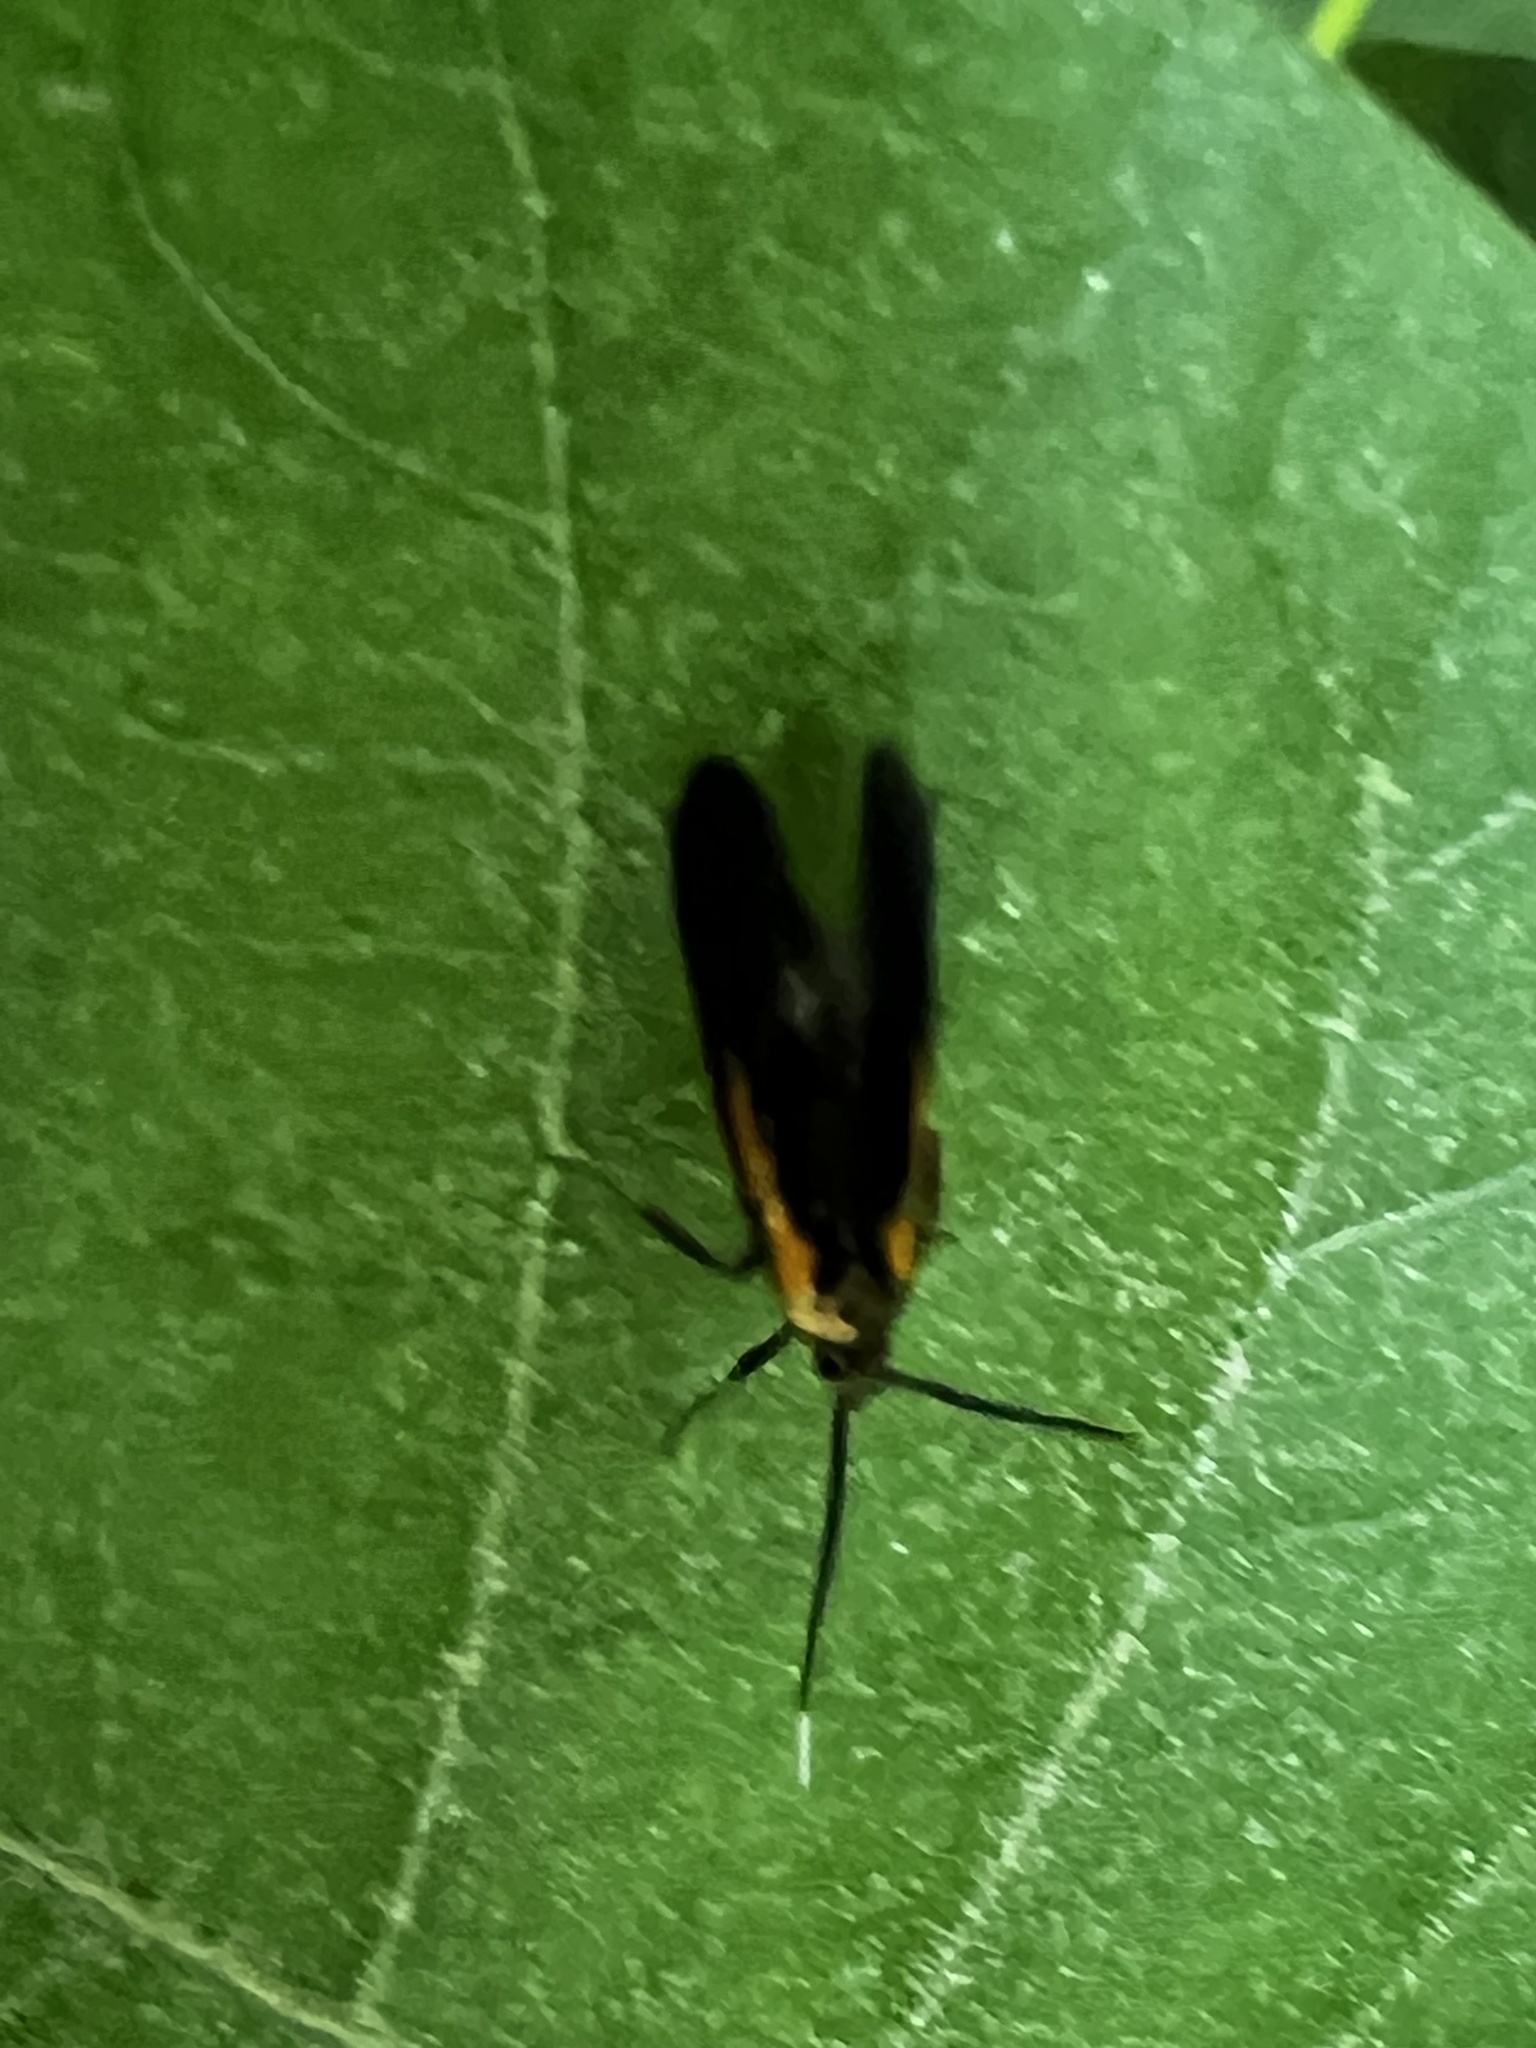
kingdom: Animalia
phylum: Arthropoda
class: Insecta
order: Lepidoptera
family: Oecophoridae
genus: Mathildana
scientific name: Mathildana newmanella
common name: Newman's mathildana moth
